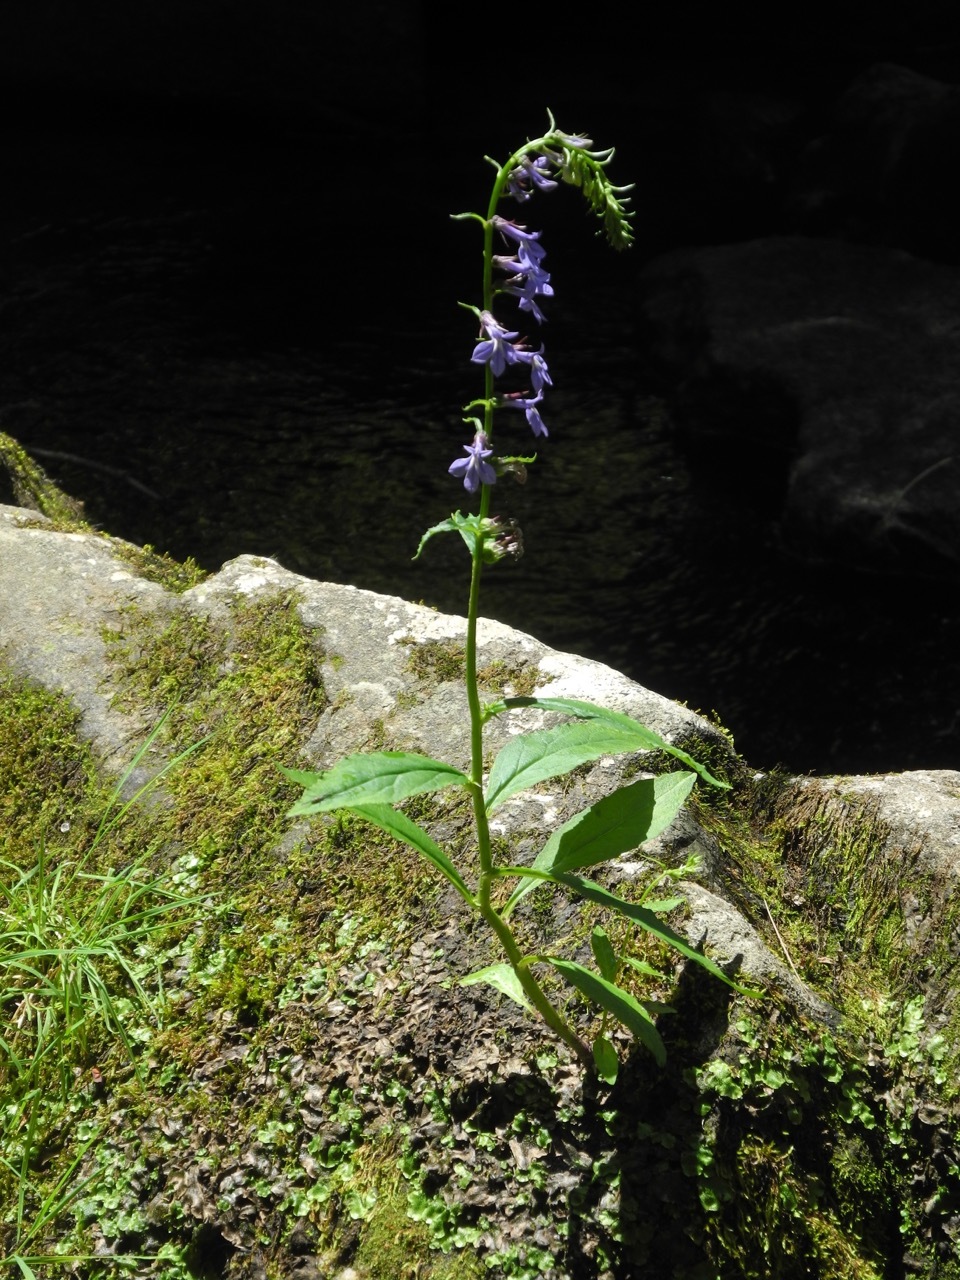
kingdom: Plantae
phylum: Tracheophyta
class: Magnoliopsida
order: Asterales
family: Campanulaceae
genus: Lobelia
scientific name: Lobelia amoena
